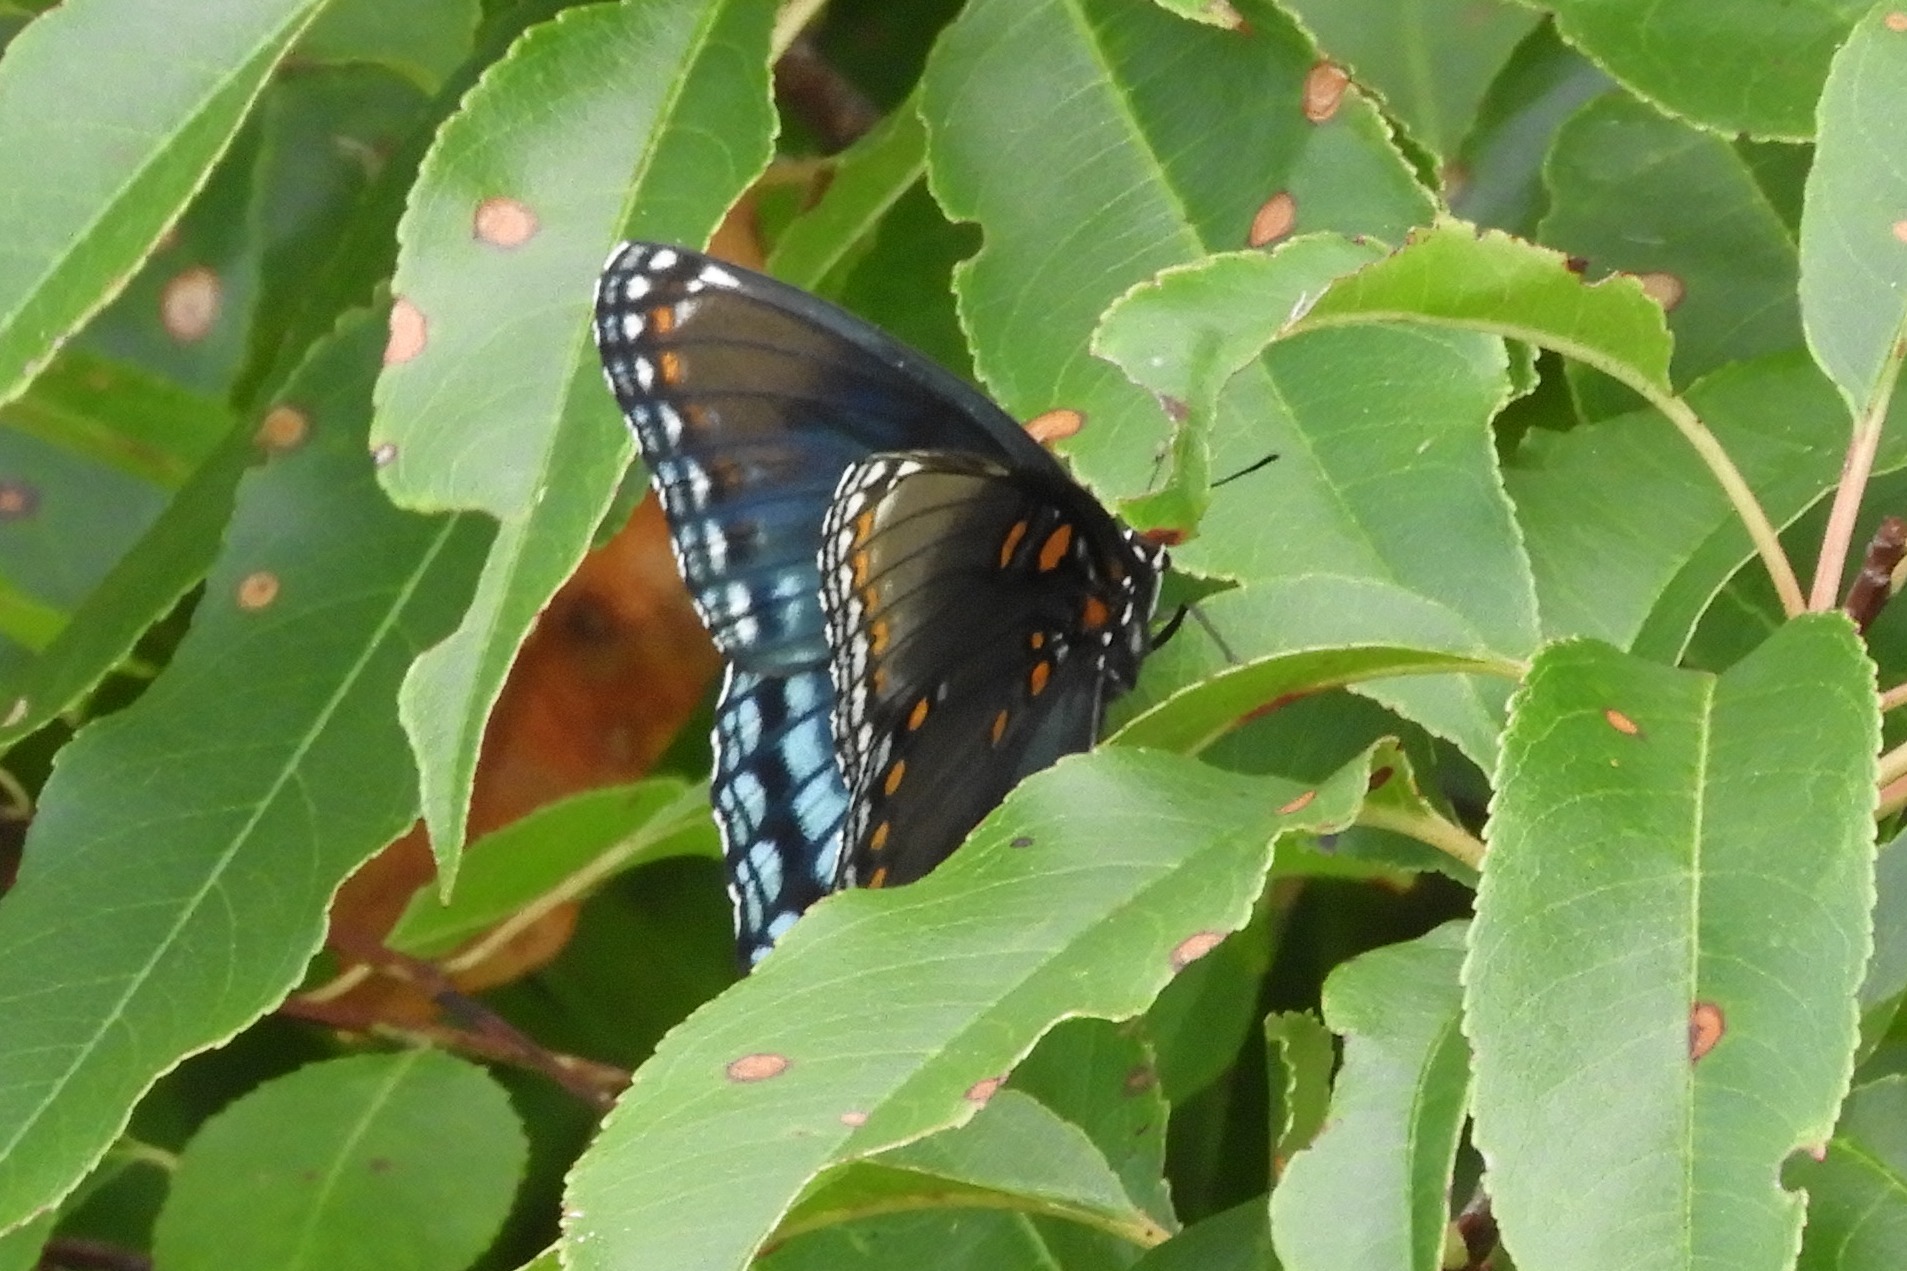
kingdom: Animalia
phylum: Arthropoda
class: Insecta
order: Lepidoptera
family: Nymphalidae
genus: Limenitis
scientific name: Limenitis astyanax
